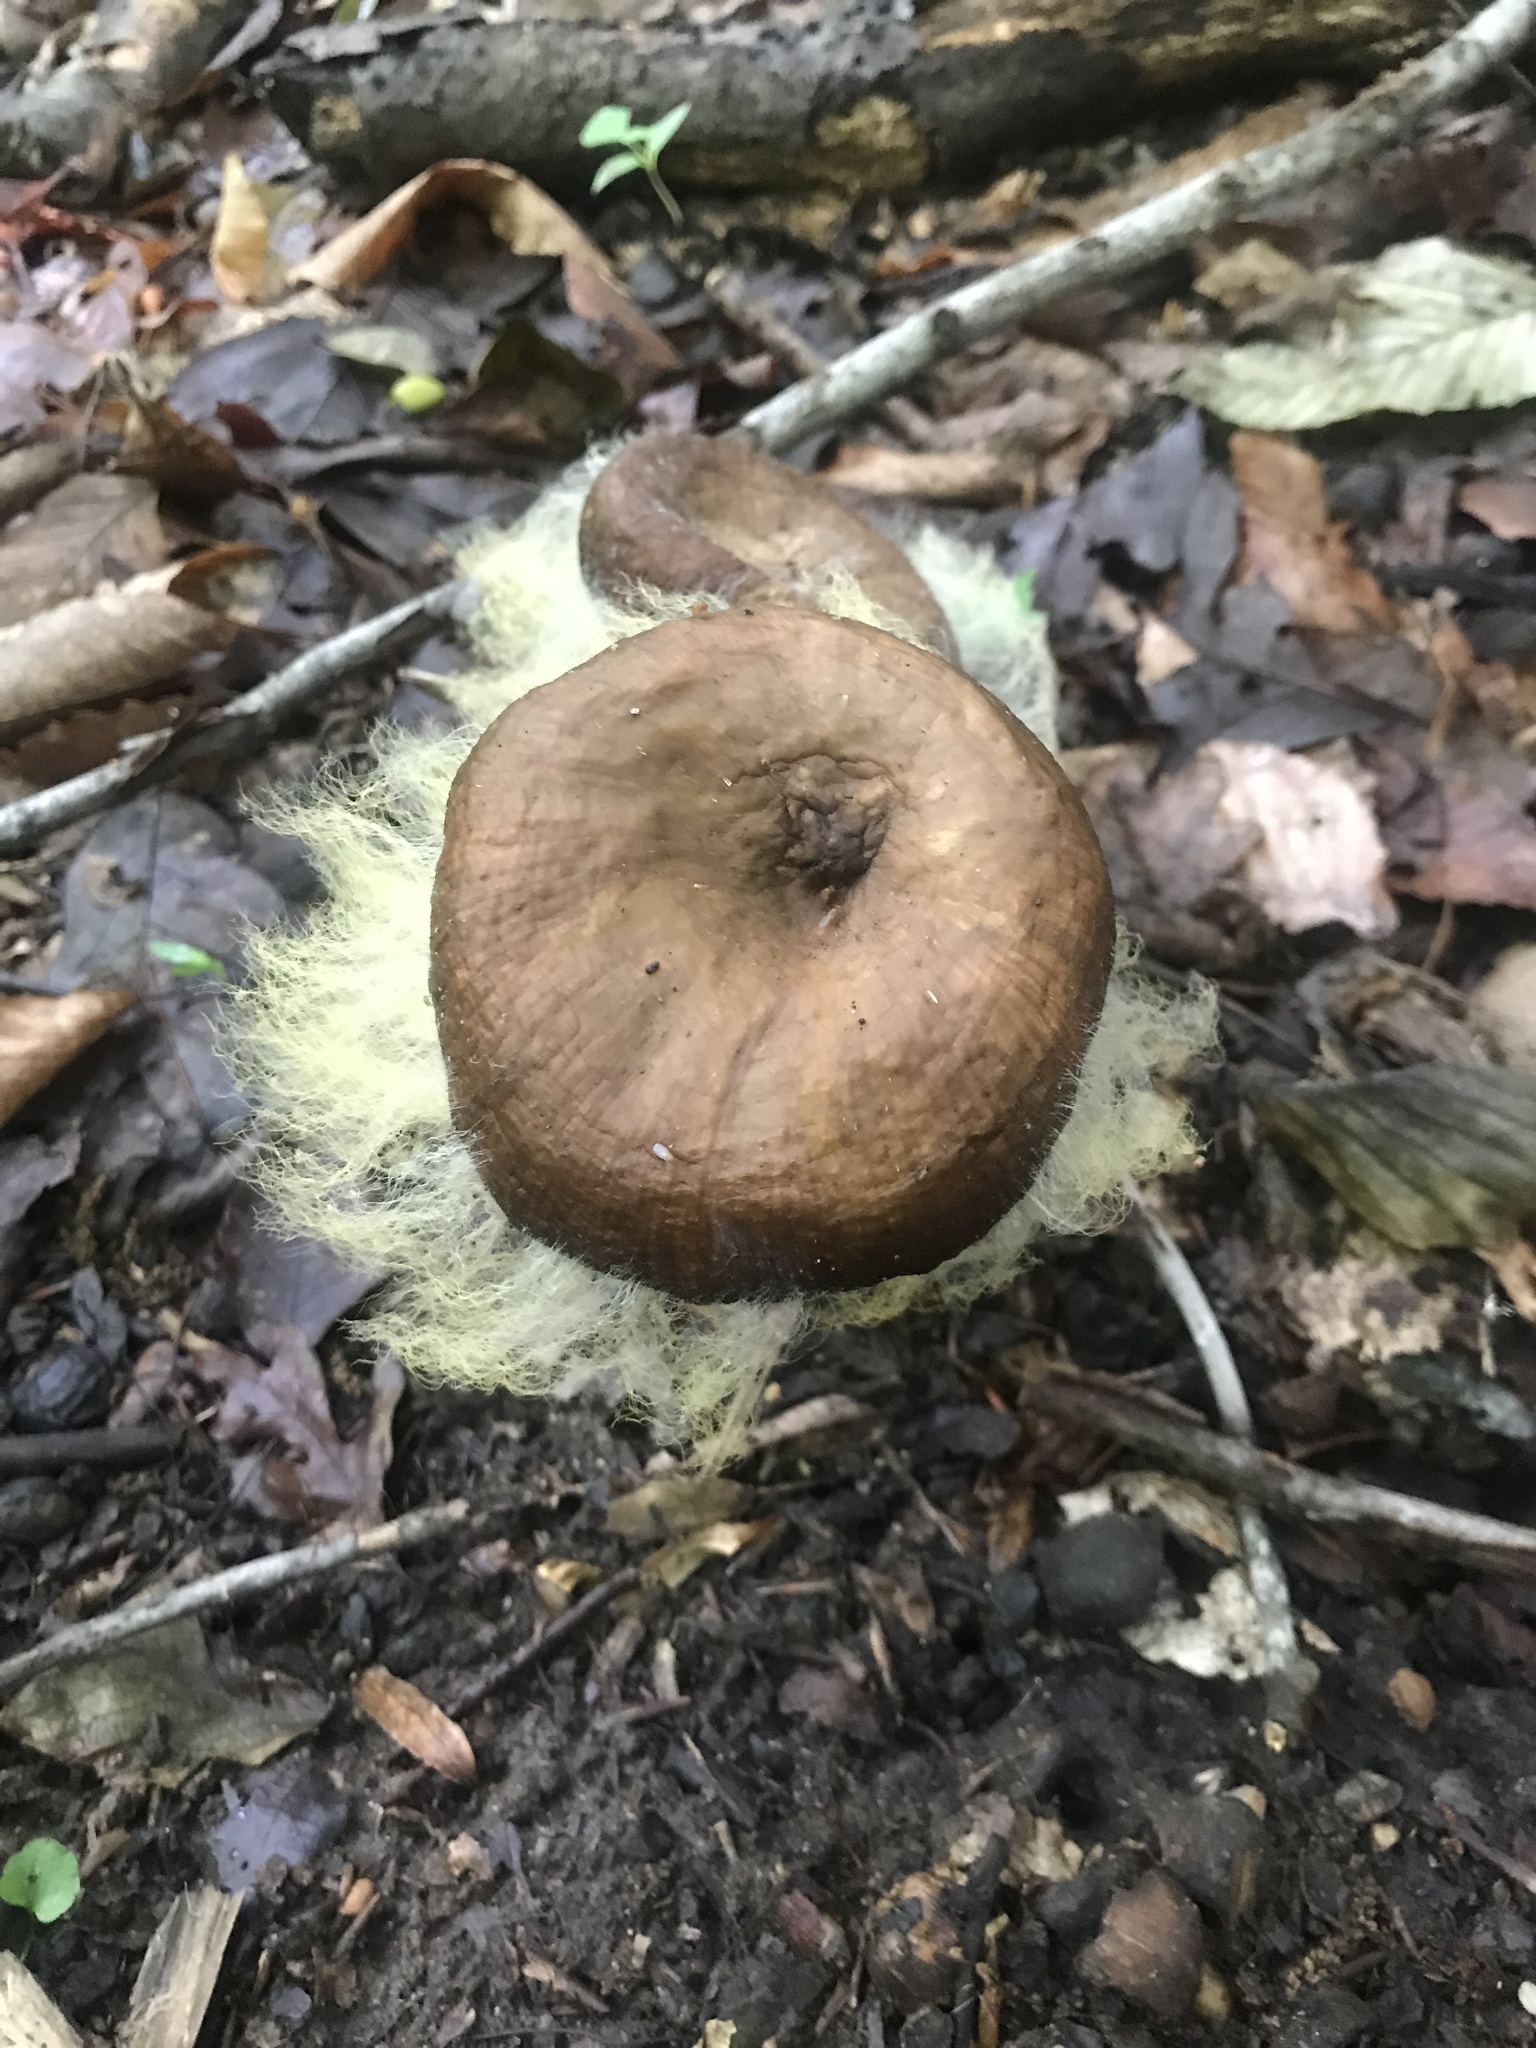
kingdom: Fungi
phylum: Mucoromycota
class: Mucoromycetes
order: Mucorales
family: Rhizopodaceae
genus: Syzygites
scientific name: Syzygites megalocarpus
